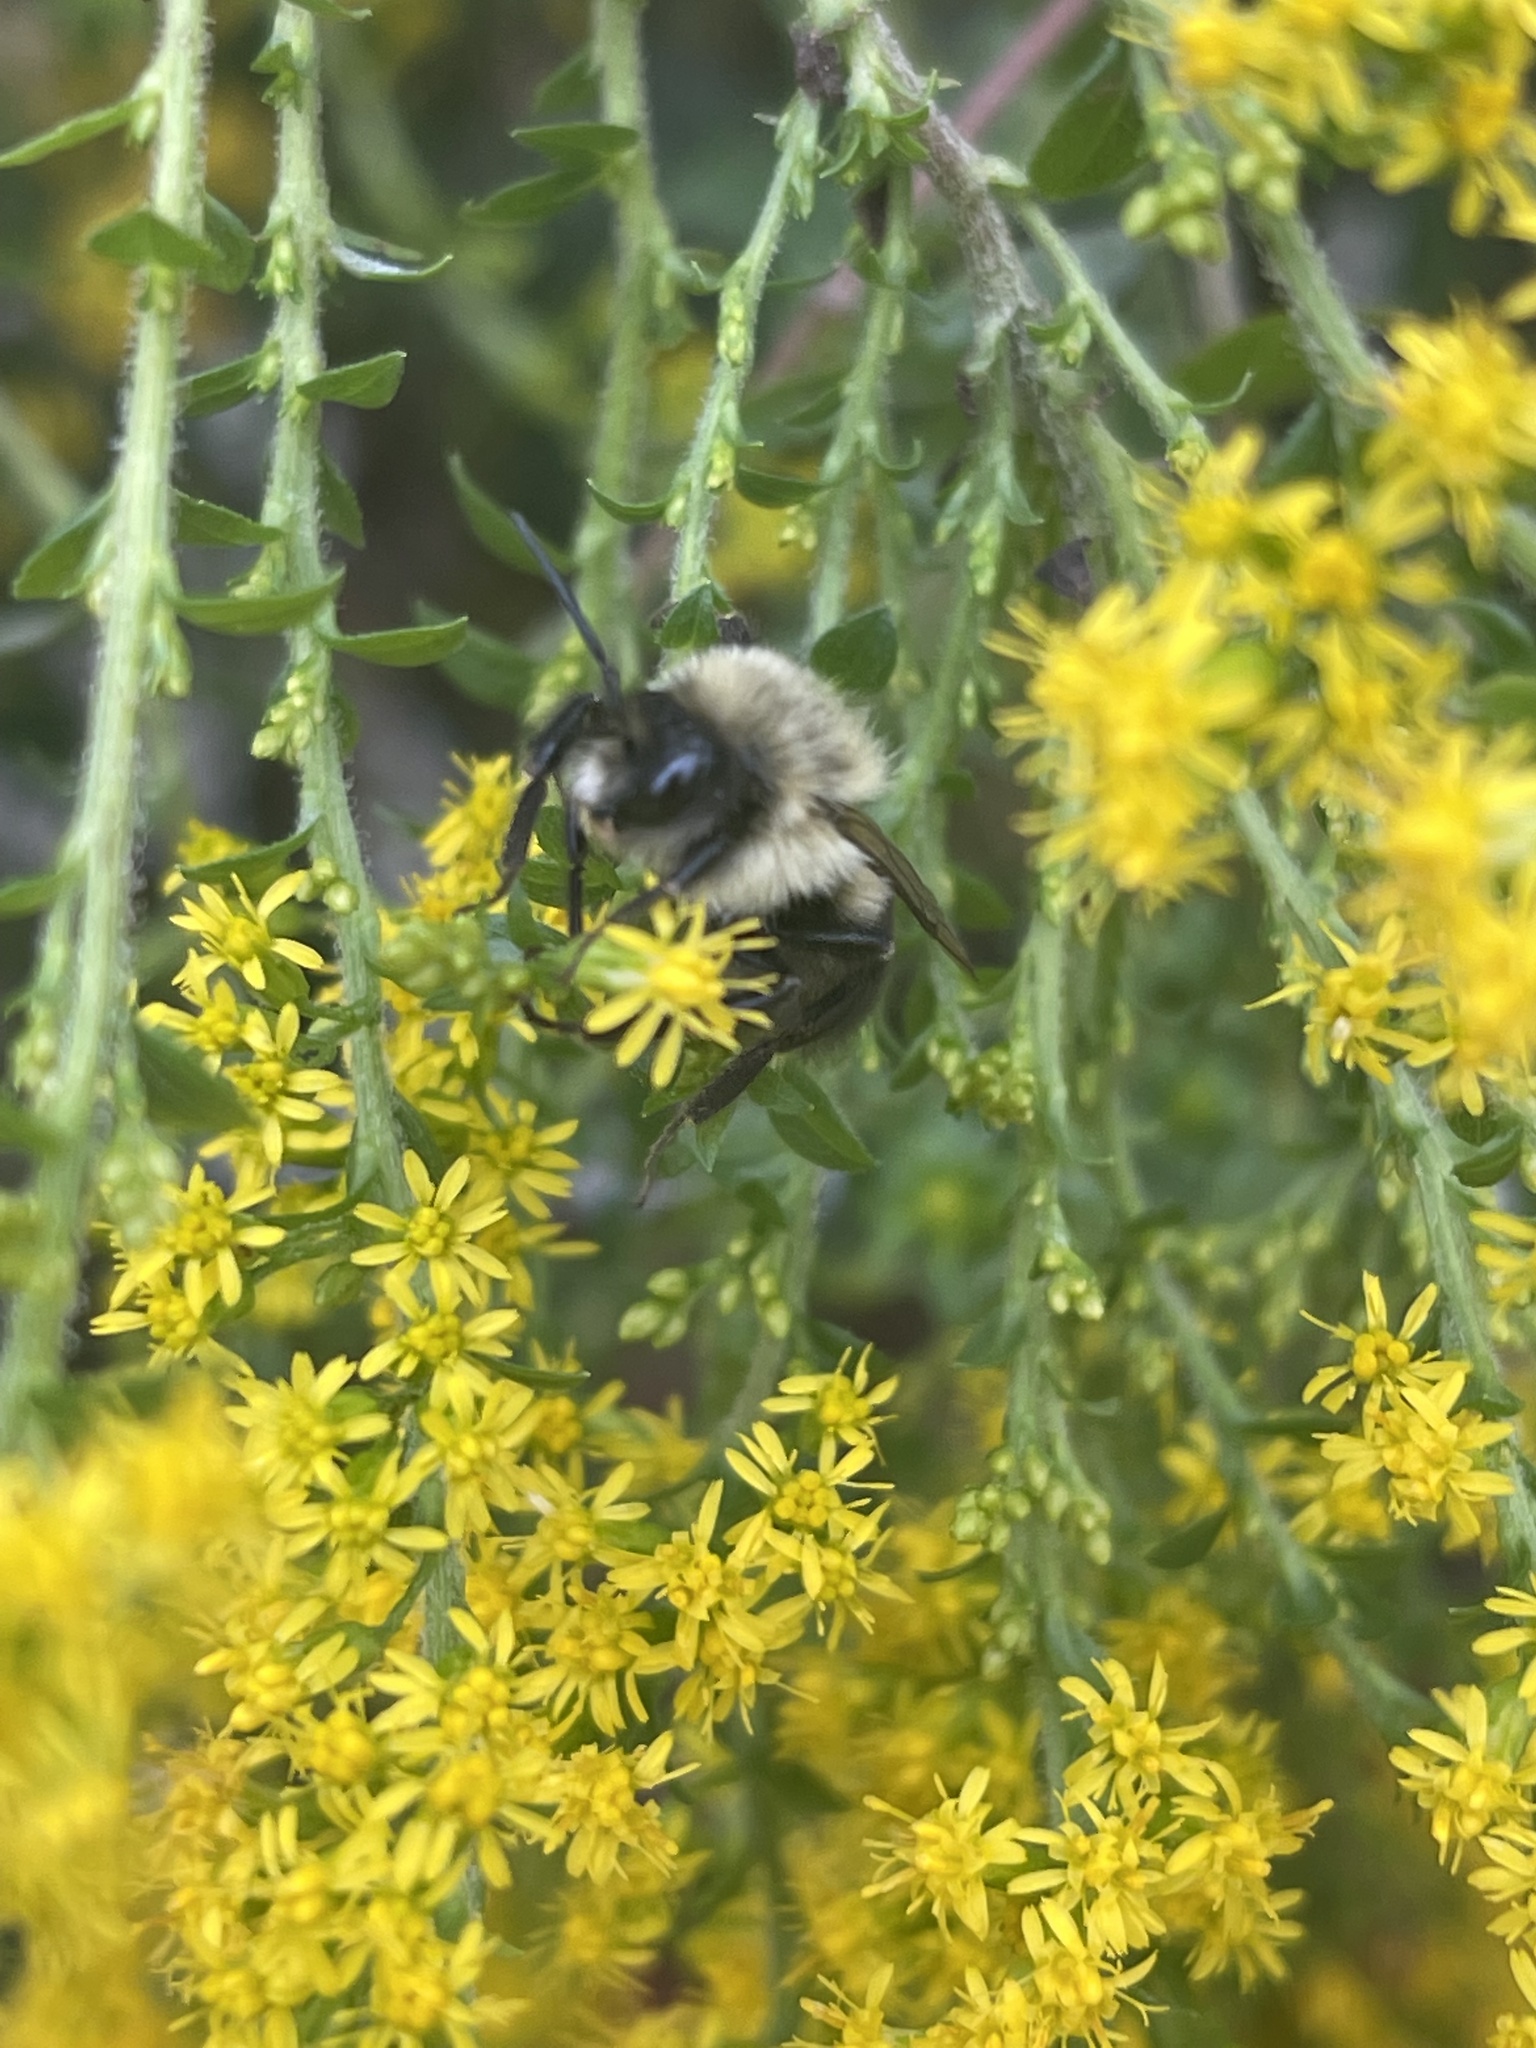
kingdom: Animalia
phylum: Arthropoda
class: Insecta
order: Hymenoptera
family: Apidae
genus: Bombus
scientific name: Bombus impatiens
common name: Common eastern bumble bee
